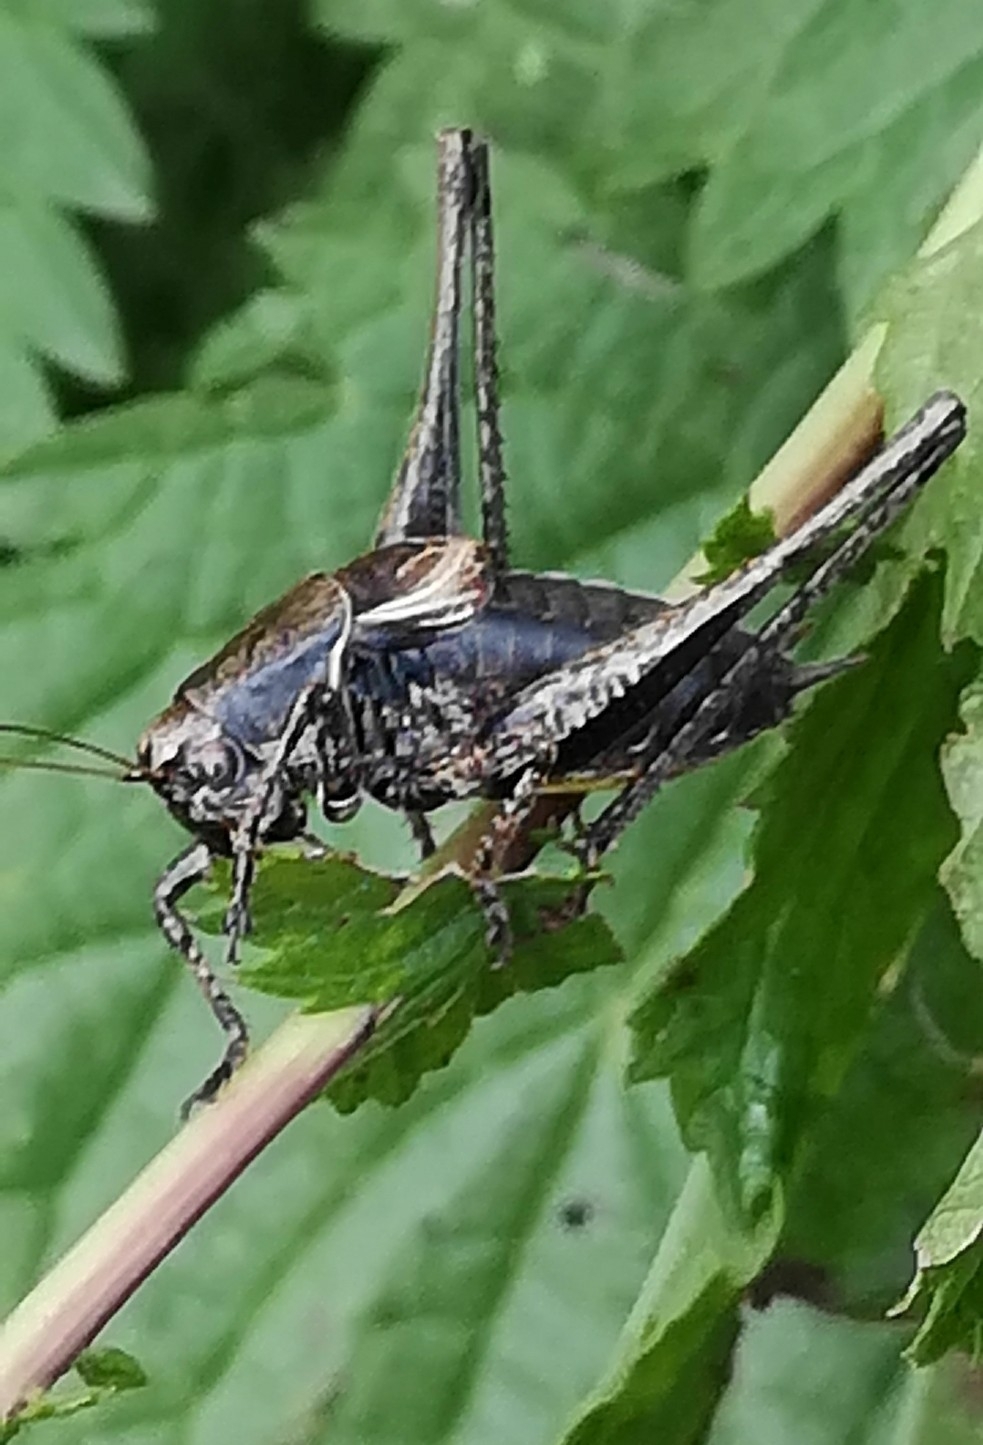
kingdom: Animalia
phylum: Arthropoda
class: Insecta
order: Orthoptera
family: Tettigoniidae
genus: Pholidoptera
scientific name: Pholidoptera griseoaptera
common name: Dark bush-cricket
